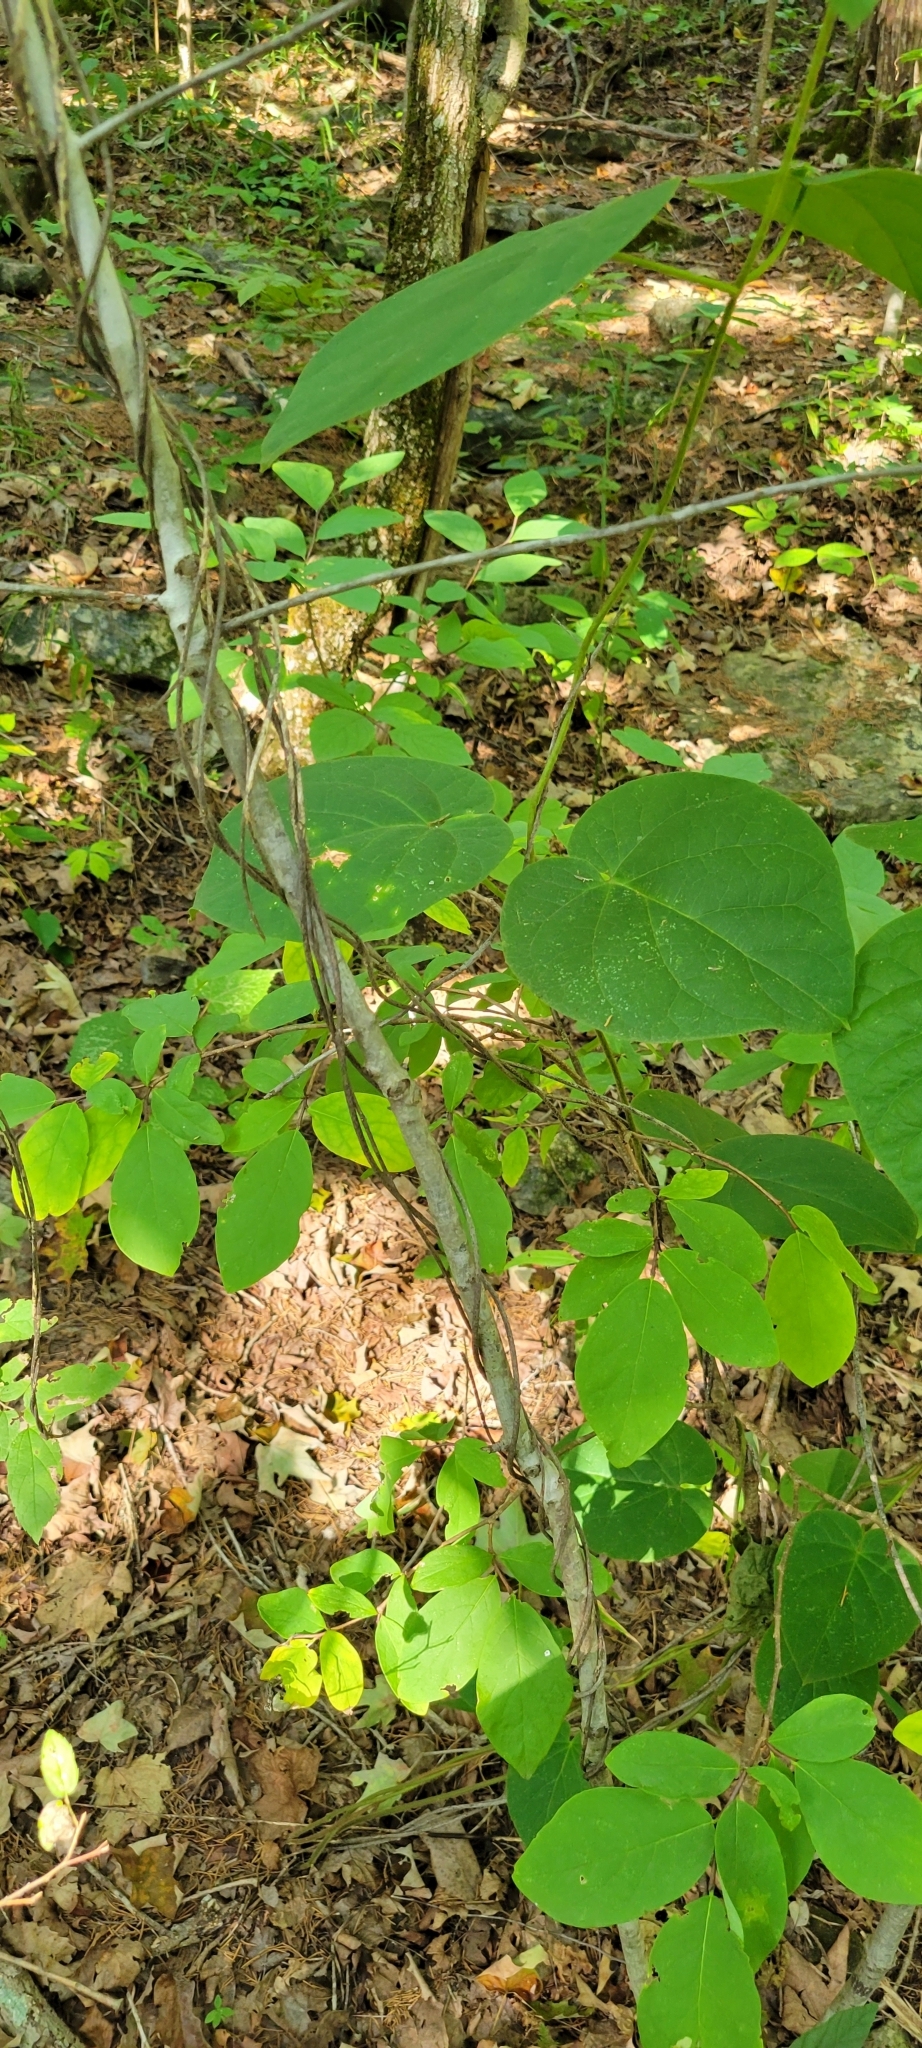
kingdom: Plantae
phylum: Tracheophyta
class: Magnoliopsida
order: Gentianales
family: Apocynaceae
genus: Matelea
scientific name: Matelea obliqua
